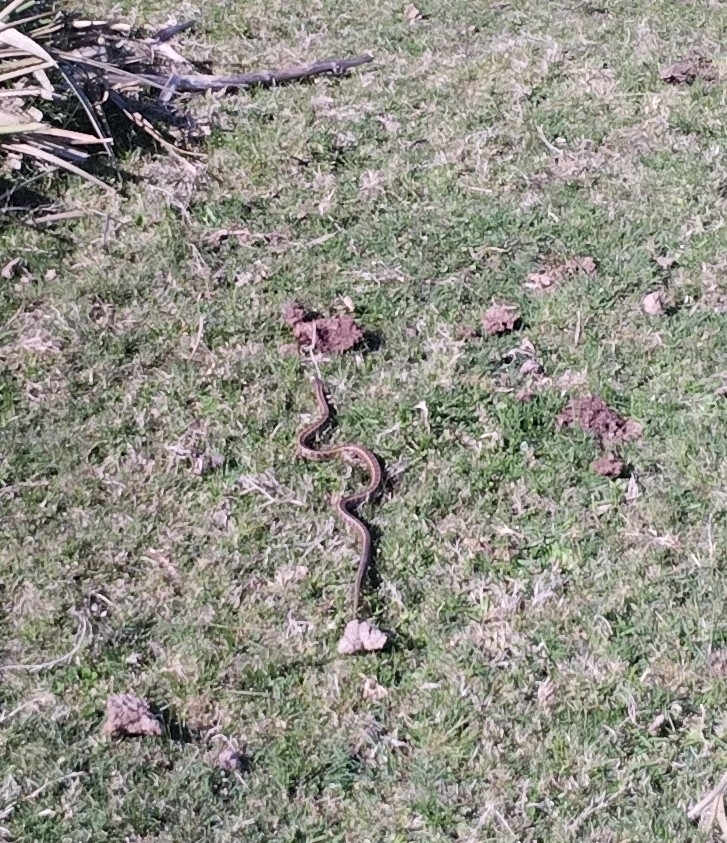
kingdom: Animalia
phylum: Chordata
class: Squamata
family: Colubridae
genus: Lygophis
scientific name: Lygophis anomalus
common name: English common name not available
